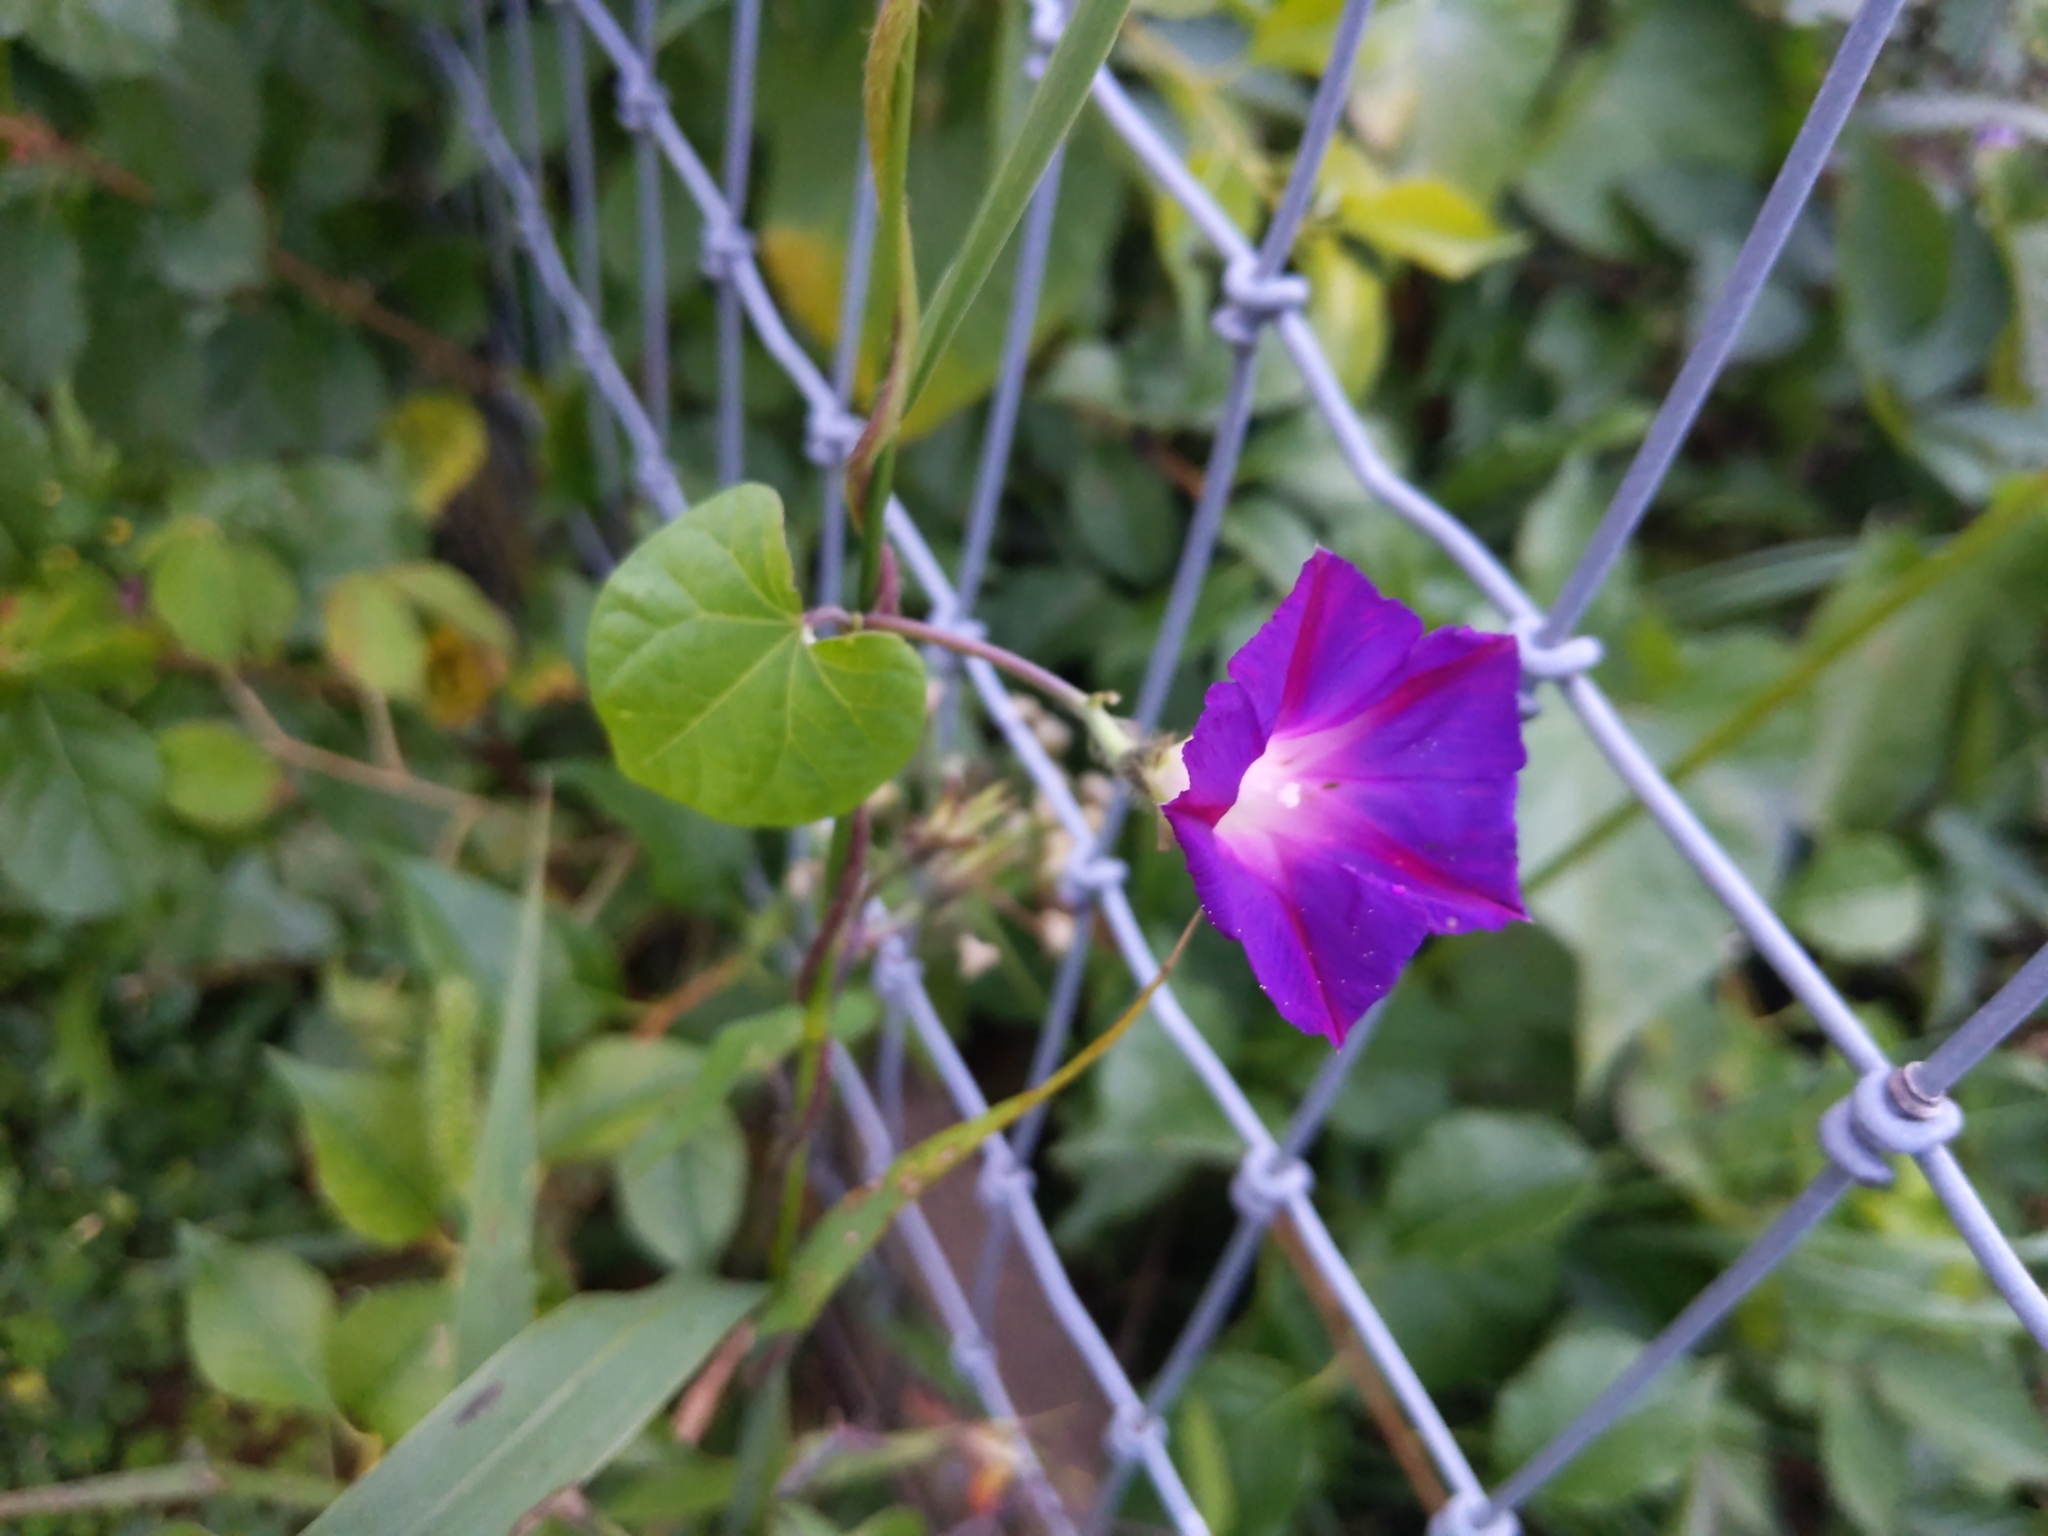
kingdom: Plantae
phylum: Tracheophyta
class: Magnoliopsida
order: Solanales
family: Convolvulaceae
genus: Ipomoea
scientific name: Ipomoea purpurea
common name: Common morning-glory
